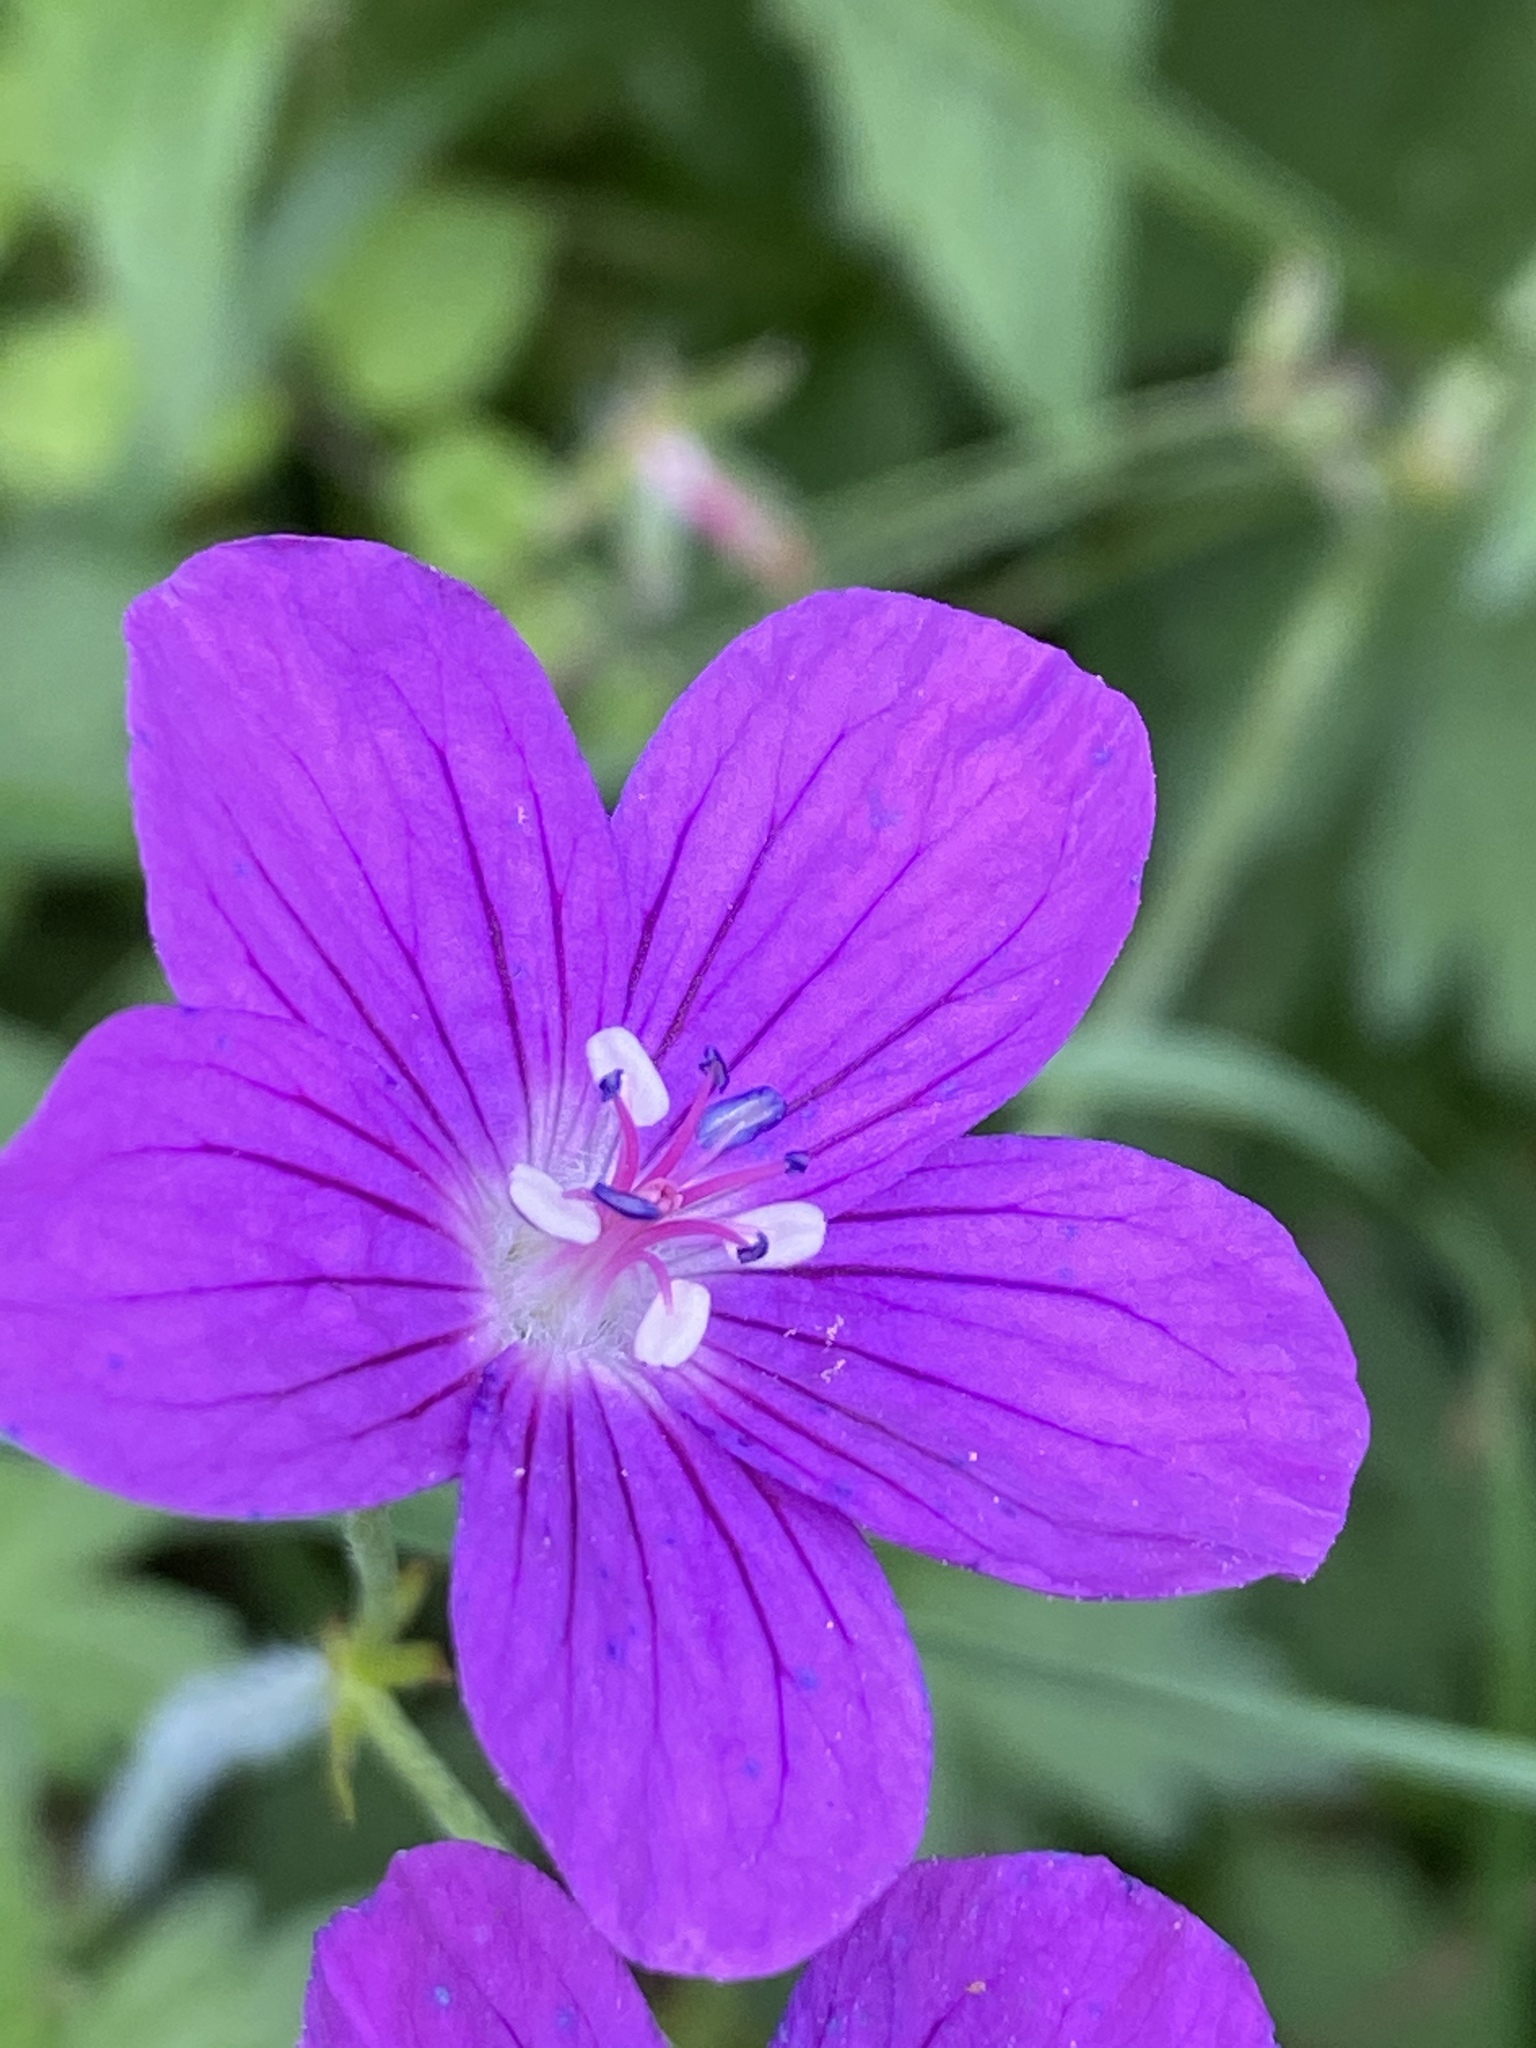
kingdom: Plantae
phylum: Tracheophyta
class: Magnoliopsida
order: Geraniales
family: Geraniaceae
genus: Geranium
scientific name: Geranium palustre
